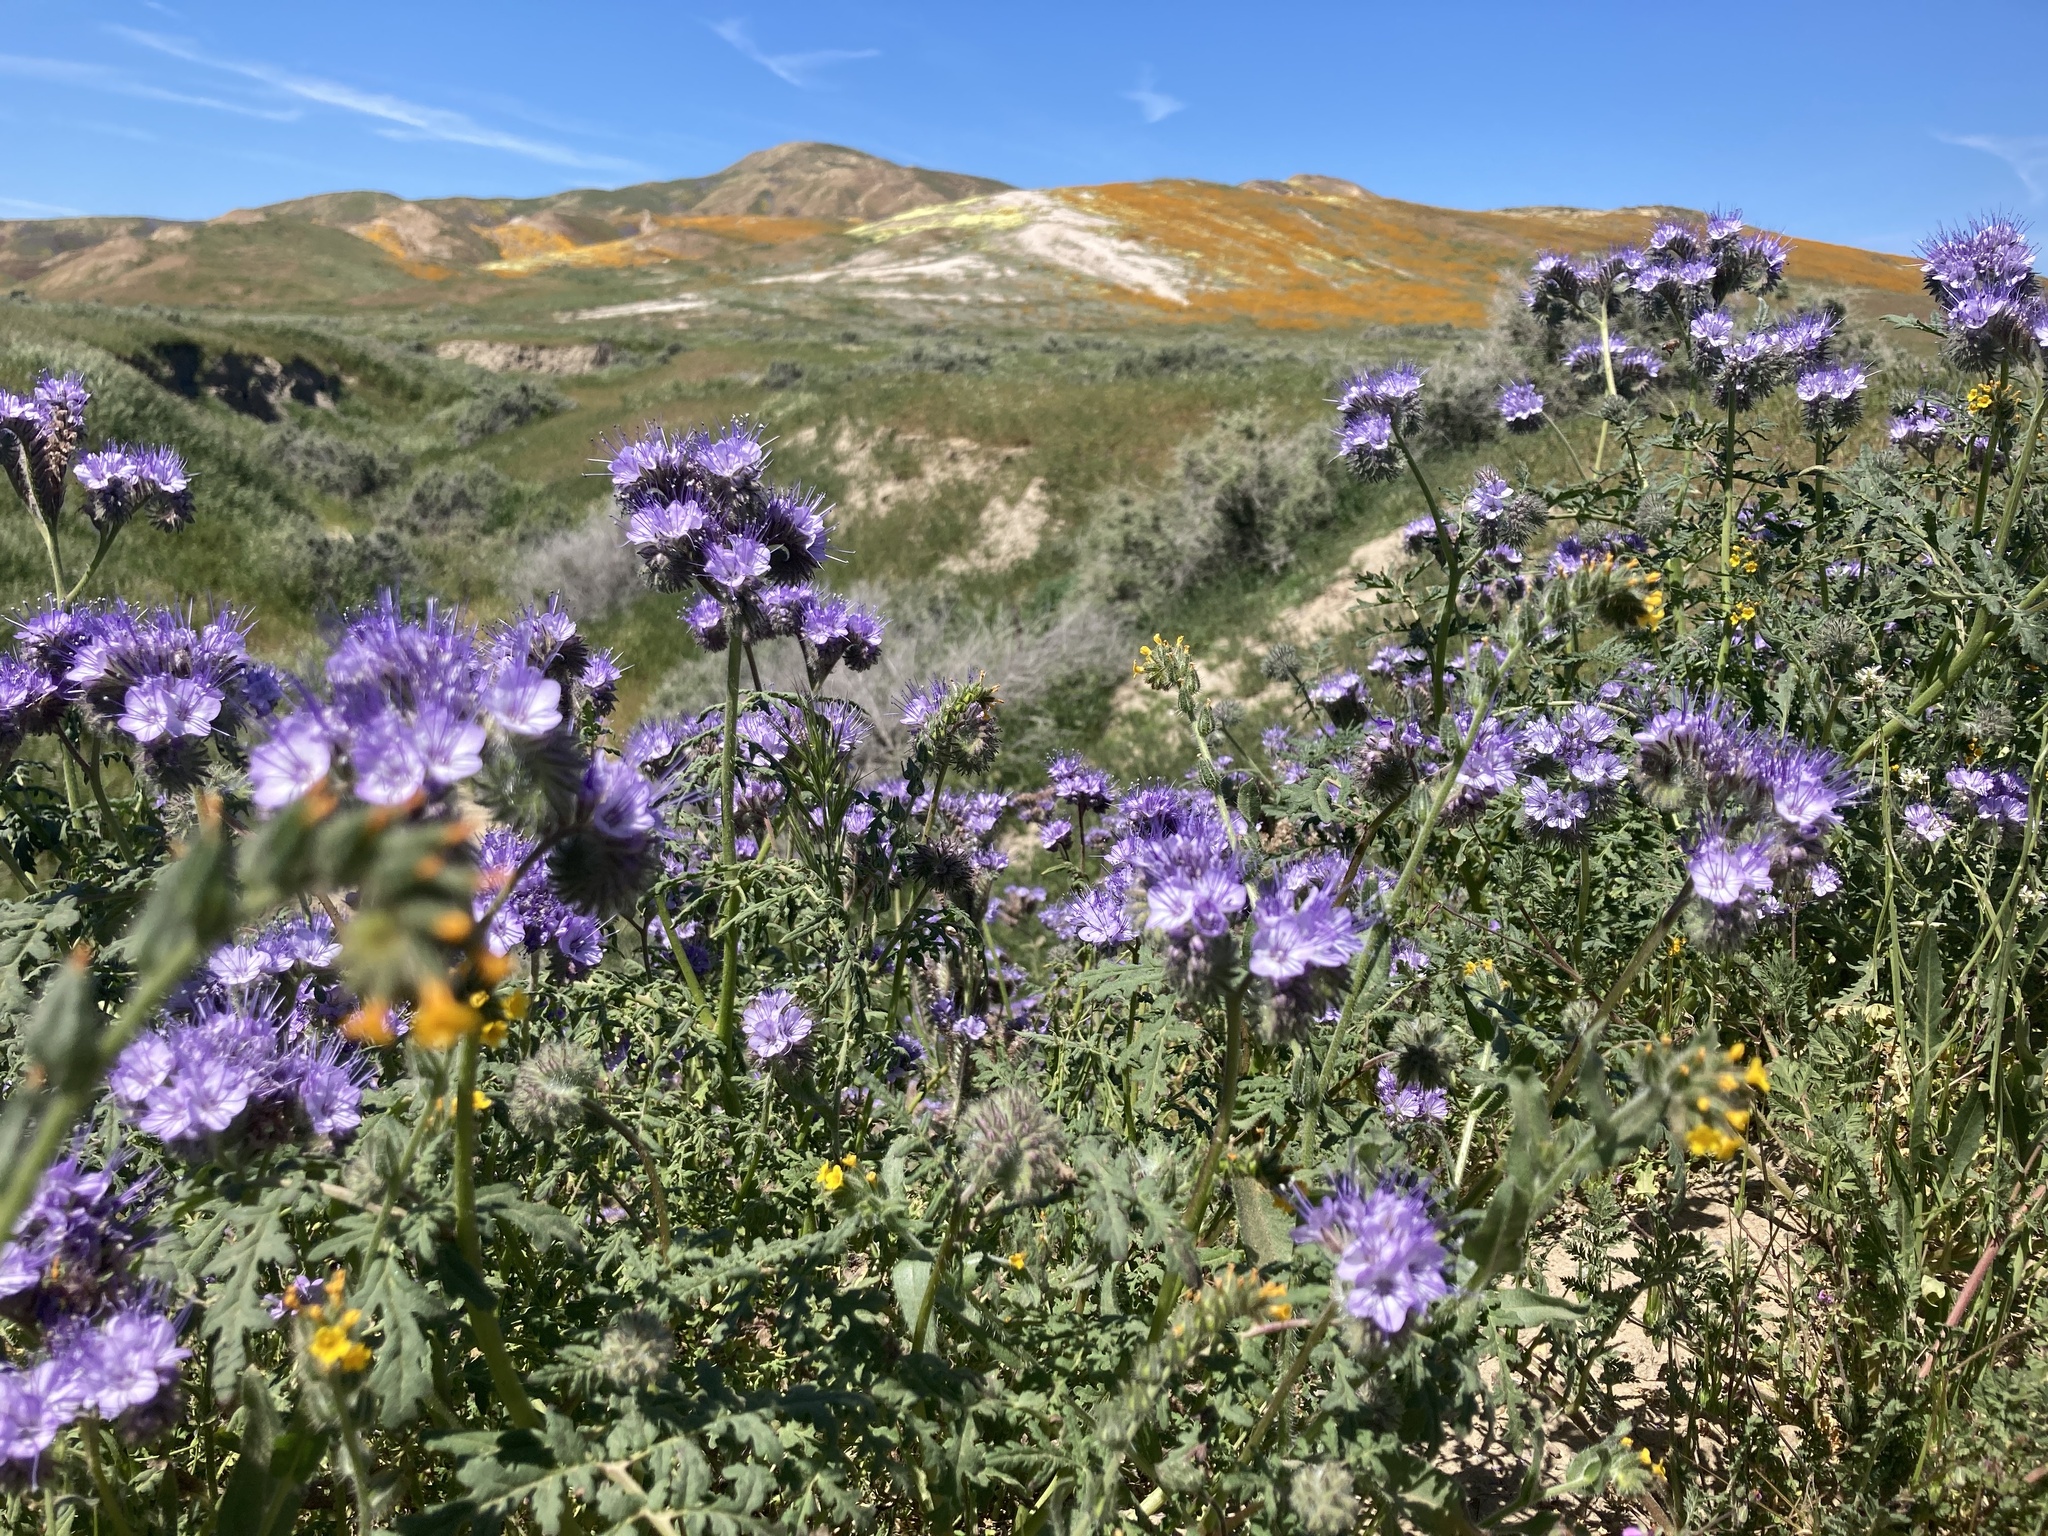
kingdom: Plantae
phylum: Tracheophyta
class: Magnoliopsida
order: Boraginales
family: Hydrophyllaceae
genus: Phacelia
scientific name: Phacelia tanacetifolia
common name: Phacelia
